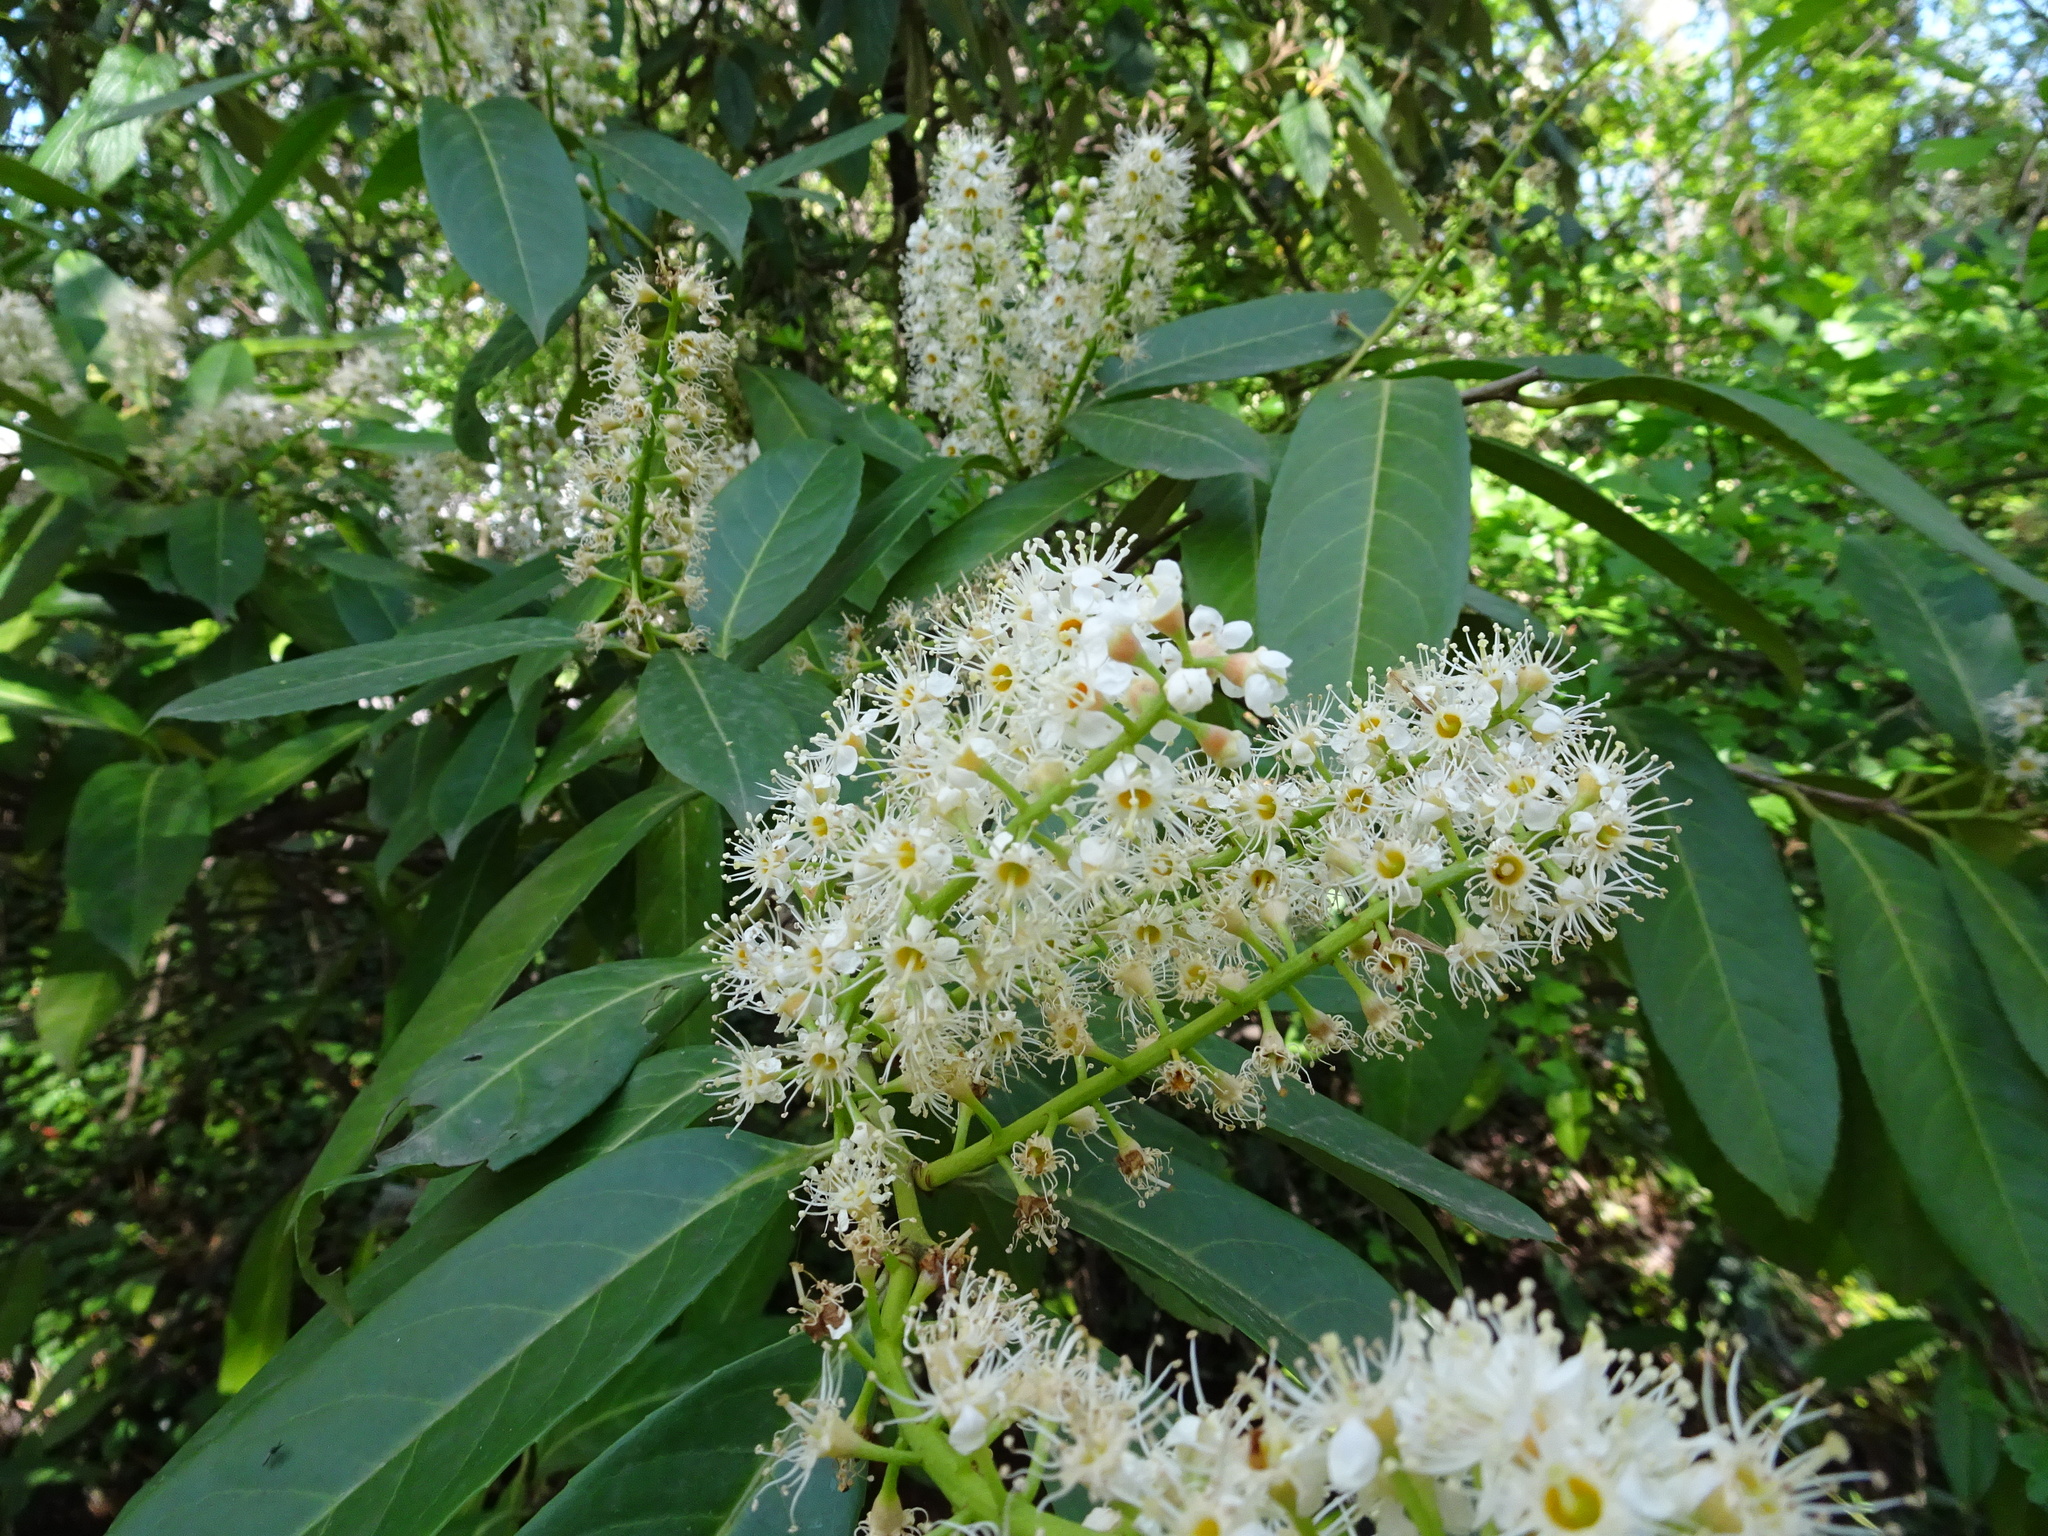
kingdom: Plantae
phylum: Tracheophyta
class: Magnoliopsida
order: Rosales
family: Rosaceae
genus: Prunus
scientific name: Prunus laurocerasus
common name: Cherry laurel
